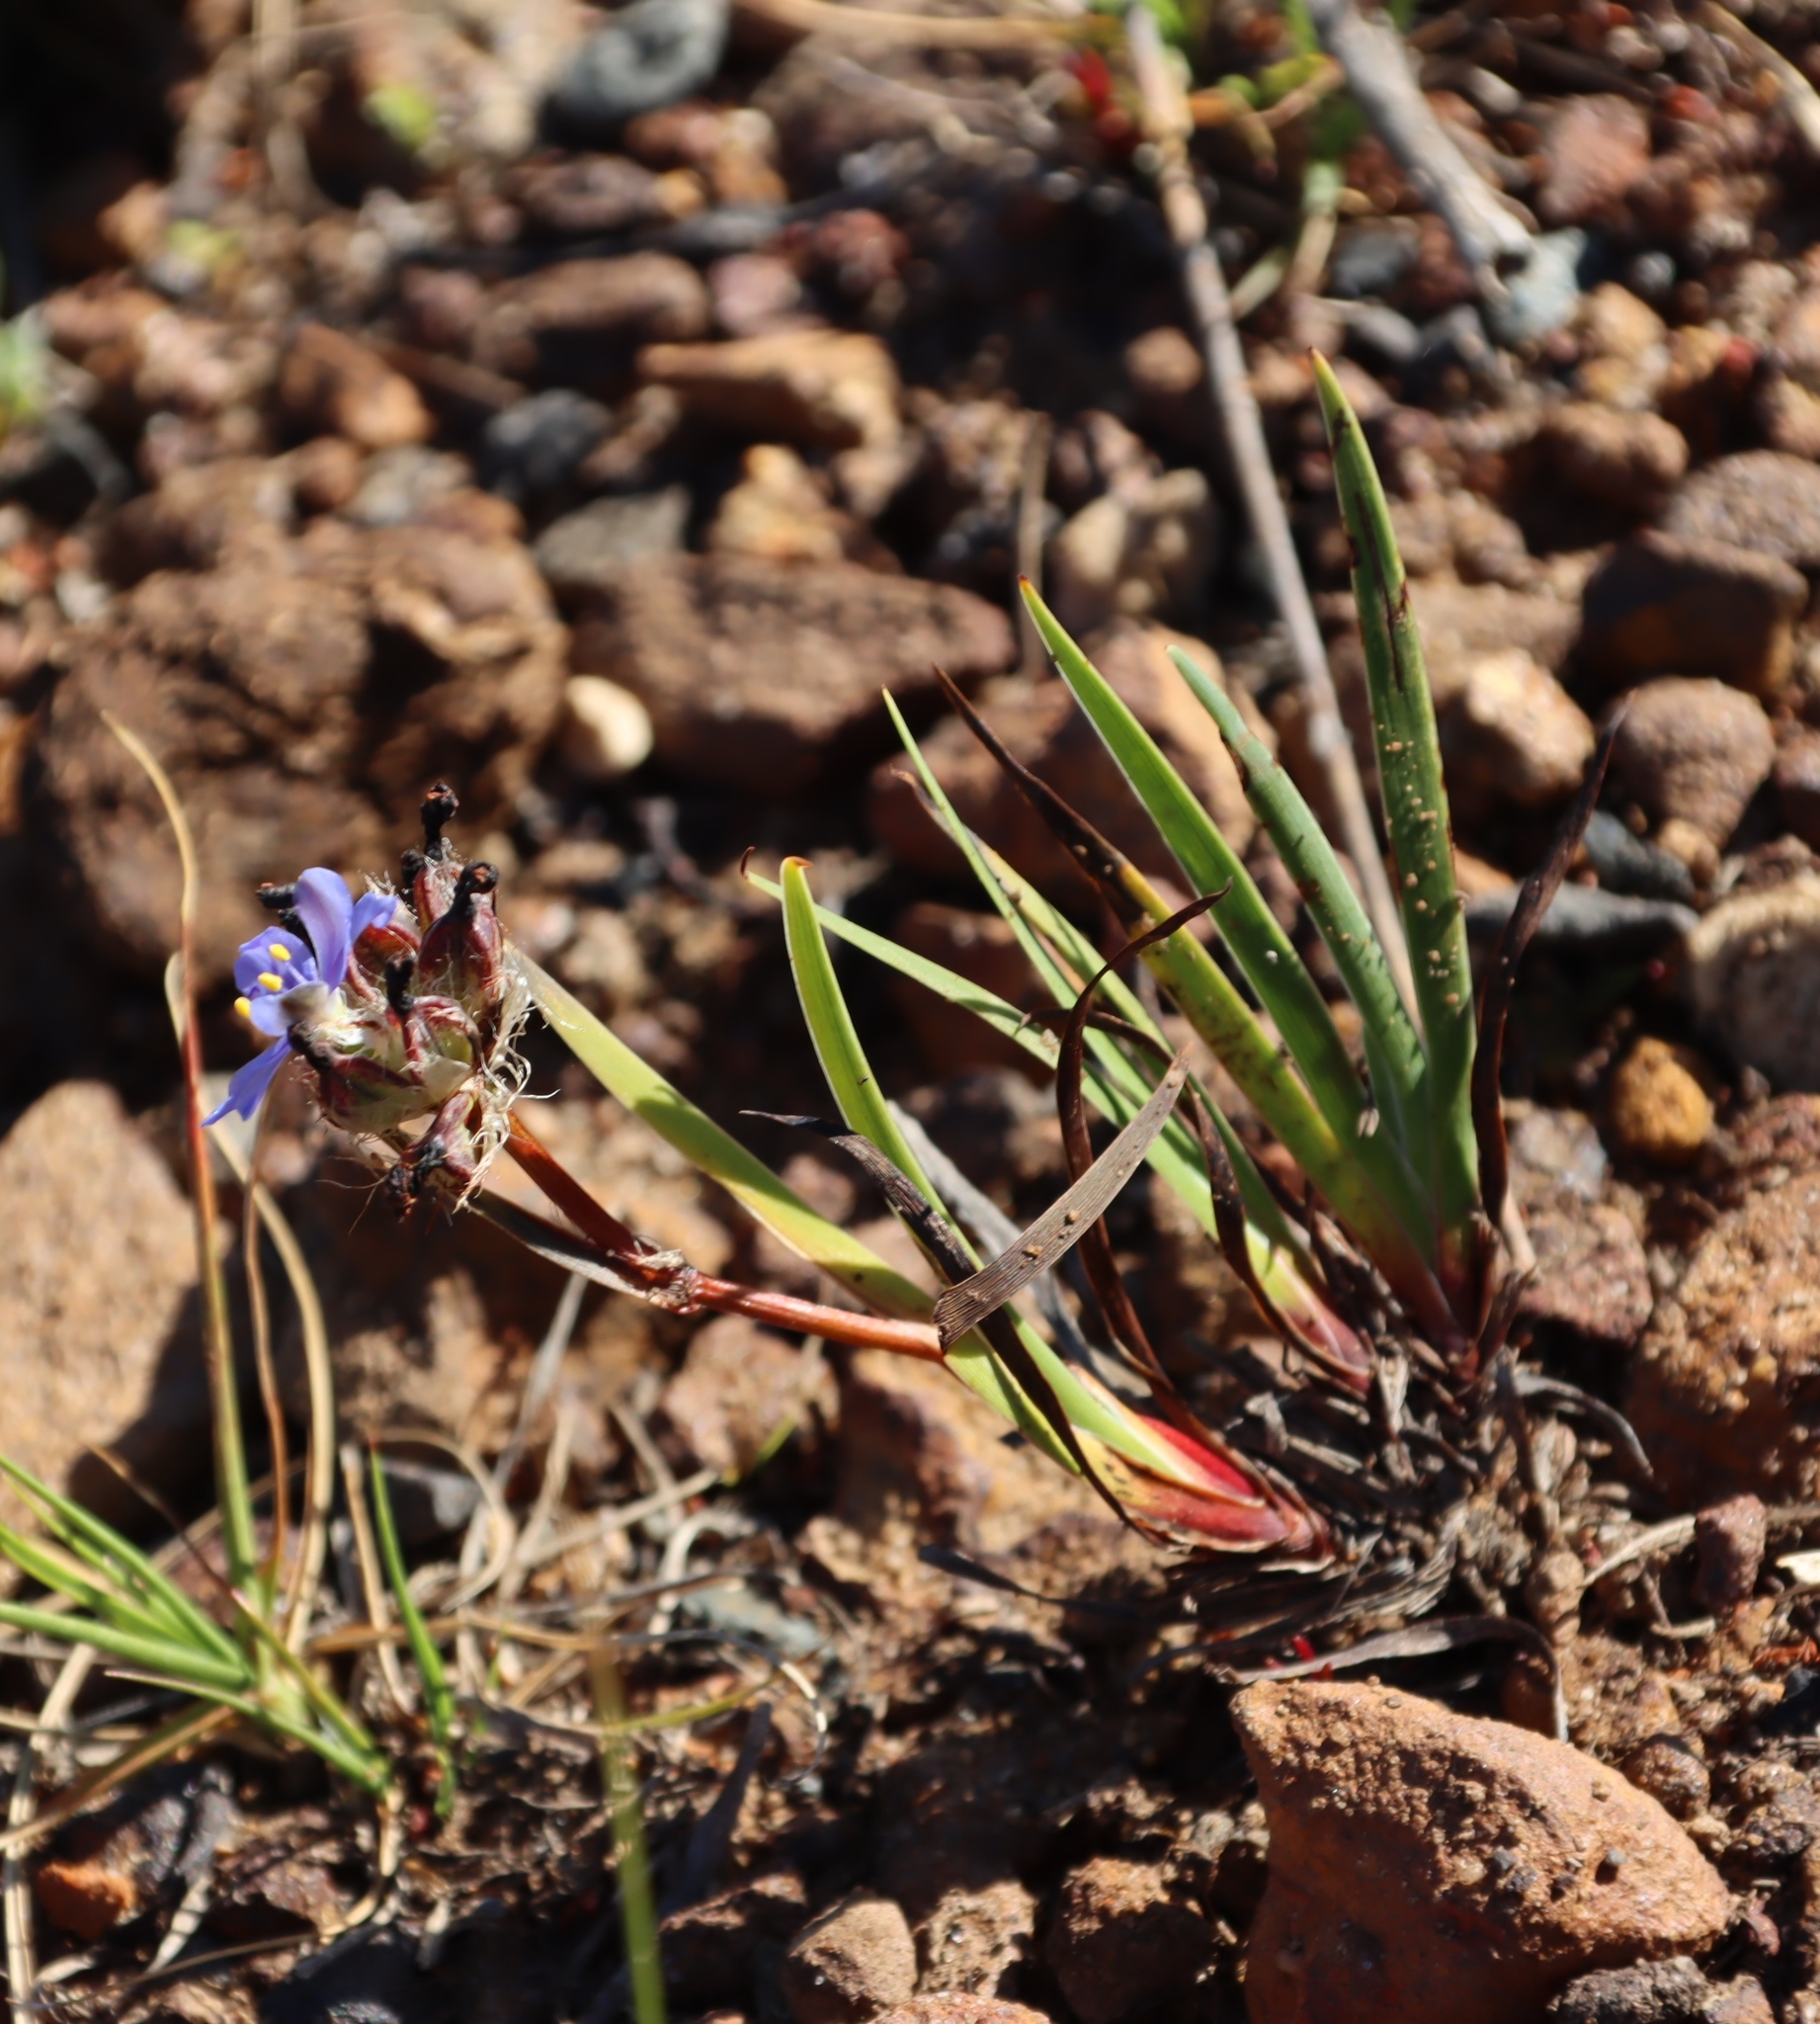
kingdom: Plantae
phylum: Tracheophyta
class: Liliopsida
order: Asparagales
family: Iridaceae
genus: Aristea
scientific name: Aristea africana
